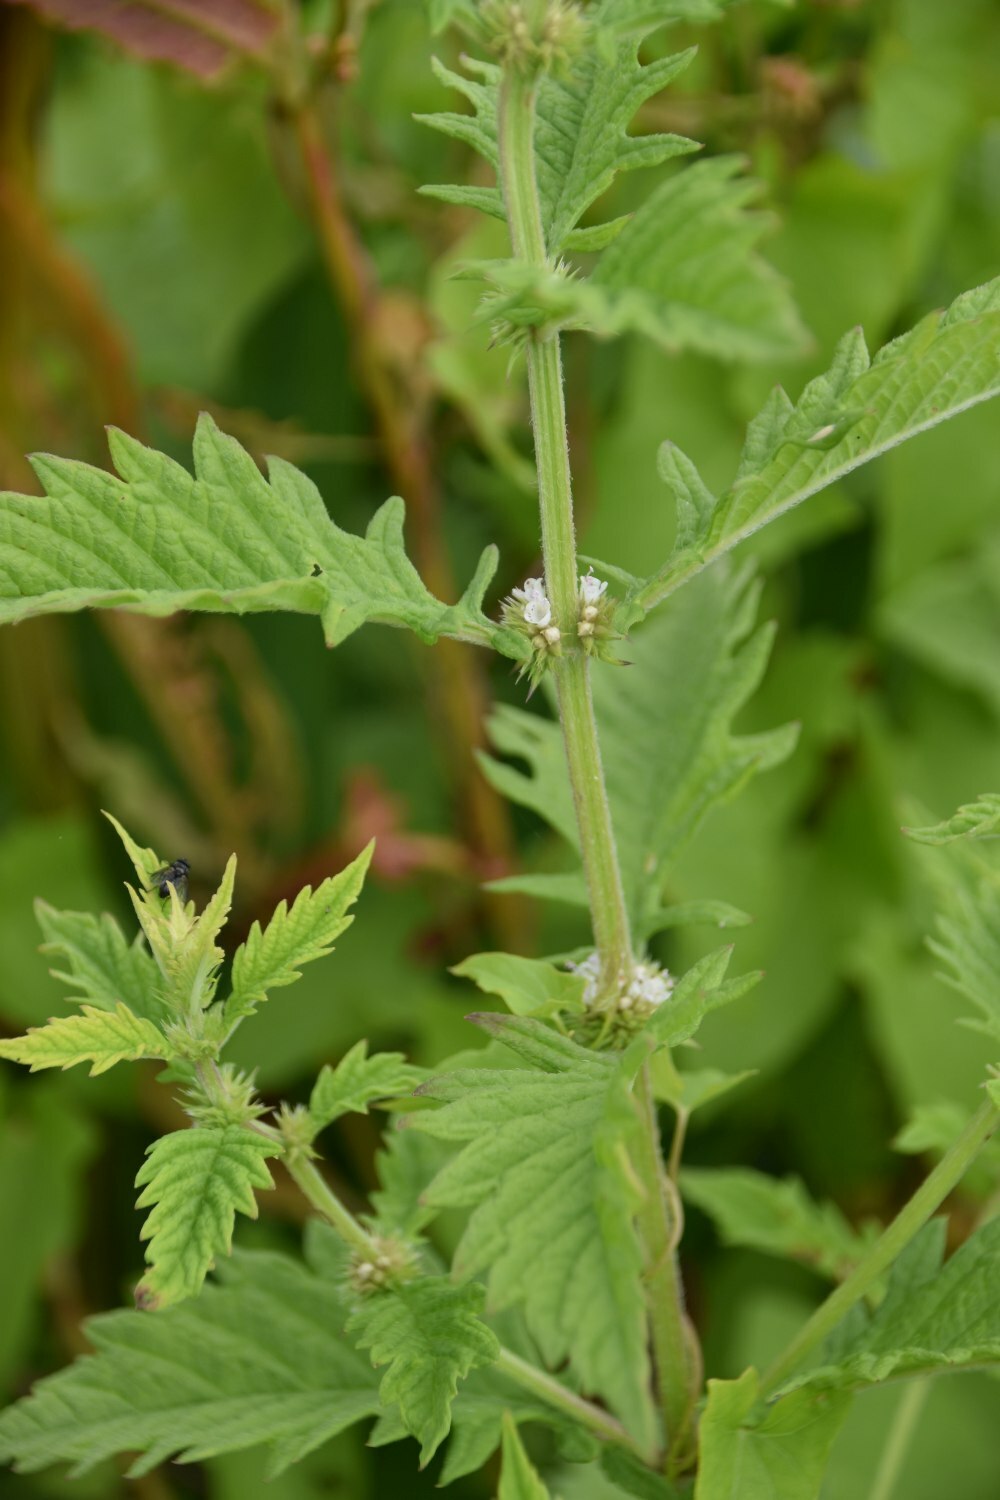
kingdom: Plantae
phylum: Tracheophyta
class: Magnoliopsida
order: Lamiales
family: Lamiaceae
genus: Lycopus
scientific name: Lycopus europaeus
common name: European bugleweed
